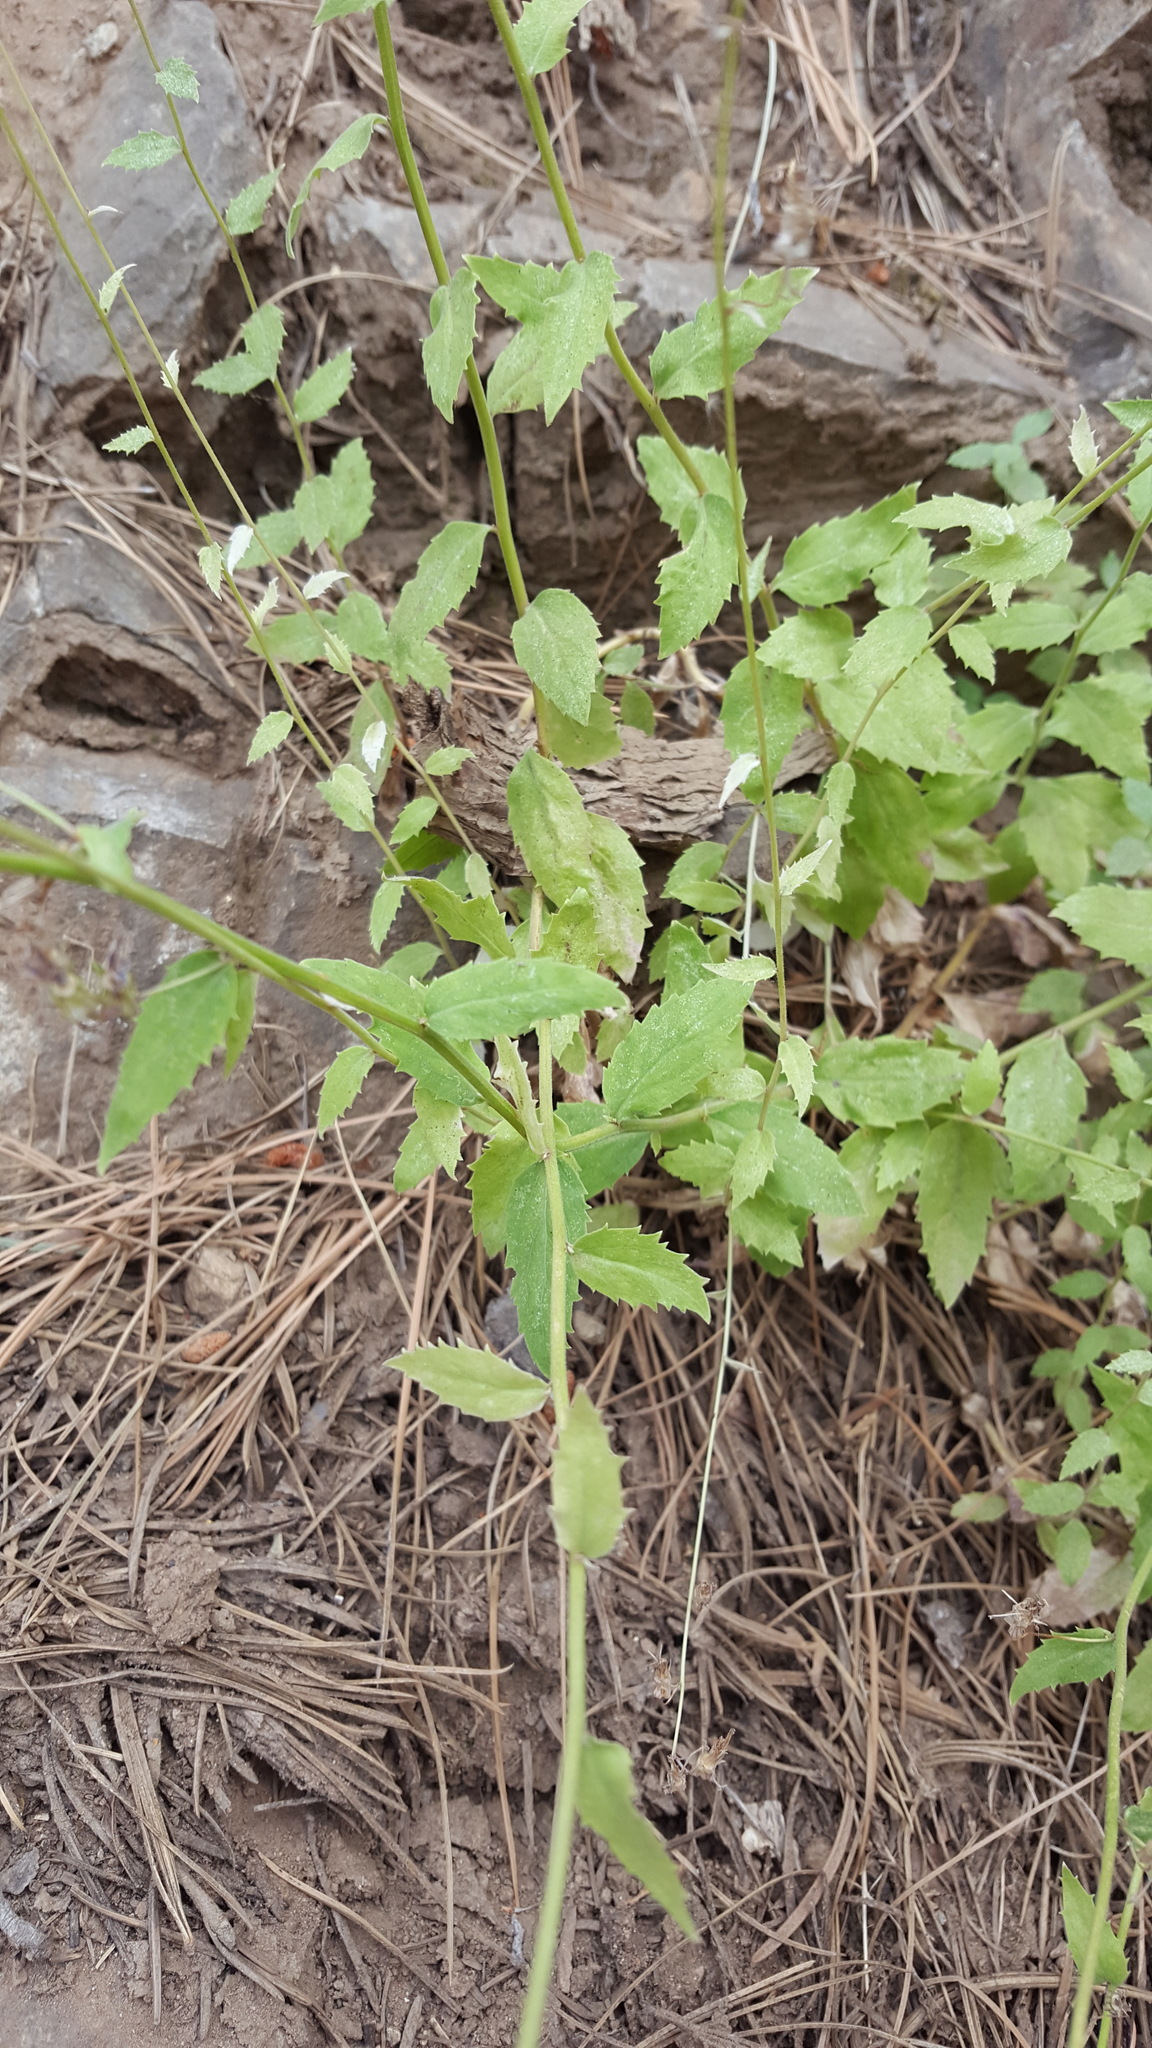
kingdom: Plantae
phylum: Tracheophyta
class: Magnoliopsida
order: Asterales
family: Campanulaceae
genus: Smithiastrum
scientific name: Smithiastrum prenanthoides
